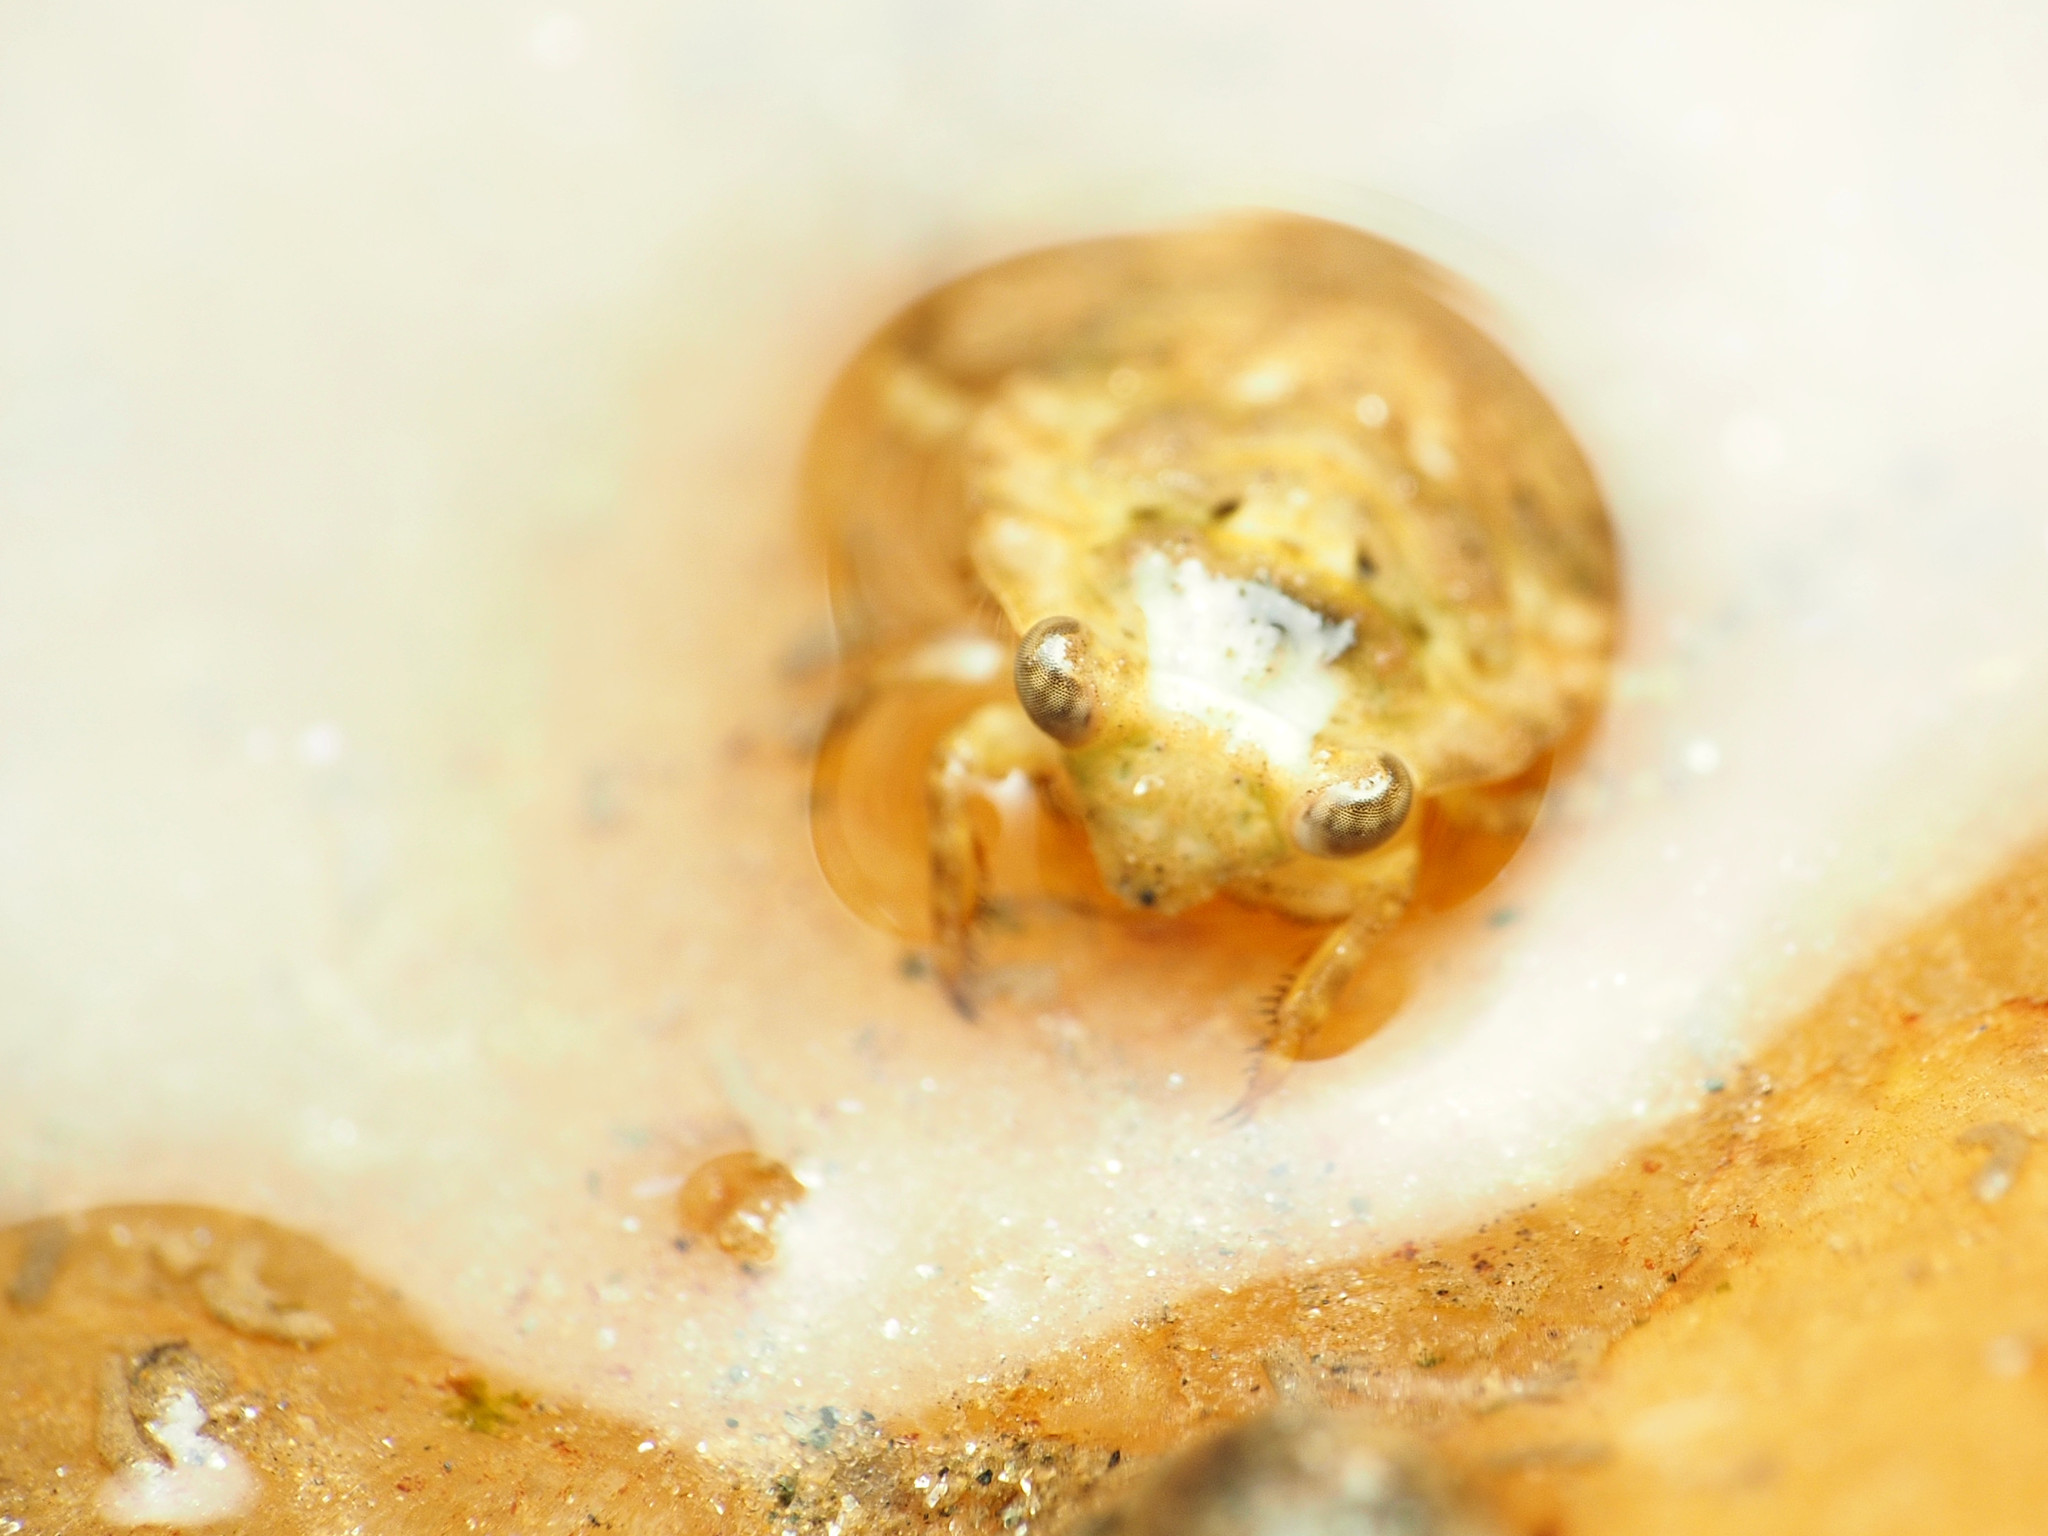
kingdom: Animalia
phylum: Arthropoda
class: Insecta
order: Hemiptera
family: Gelastocoridae
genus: Gelastocoris
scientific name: Gelastocoris oculatus
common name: Toad bug
